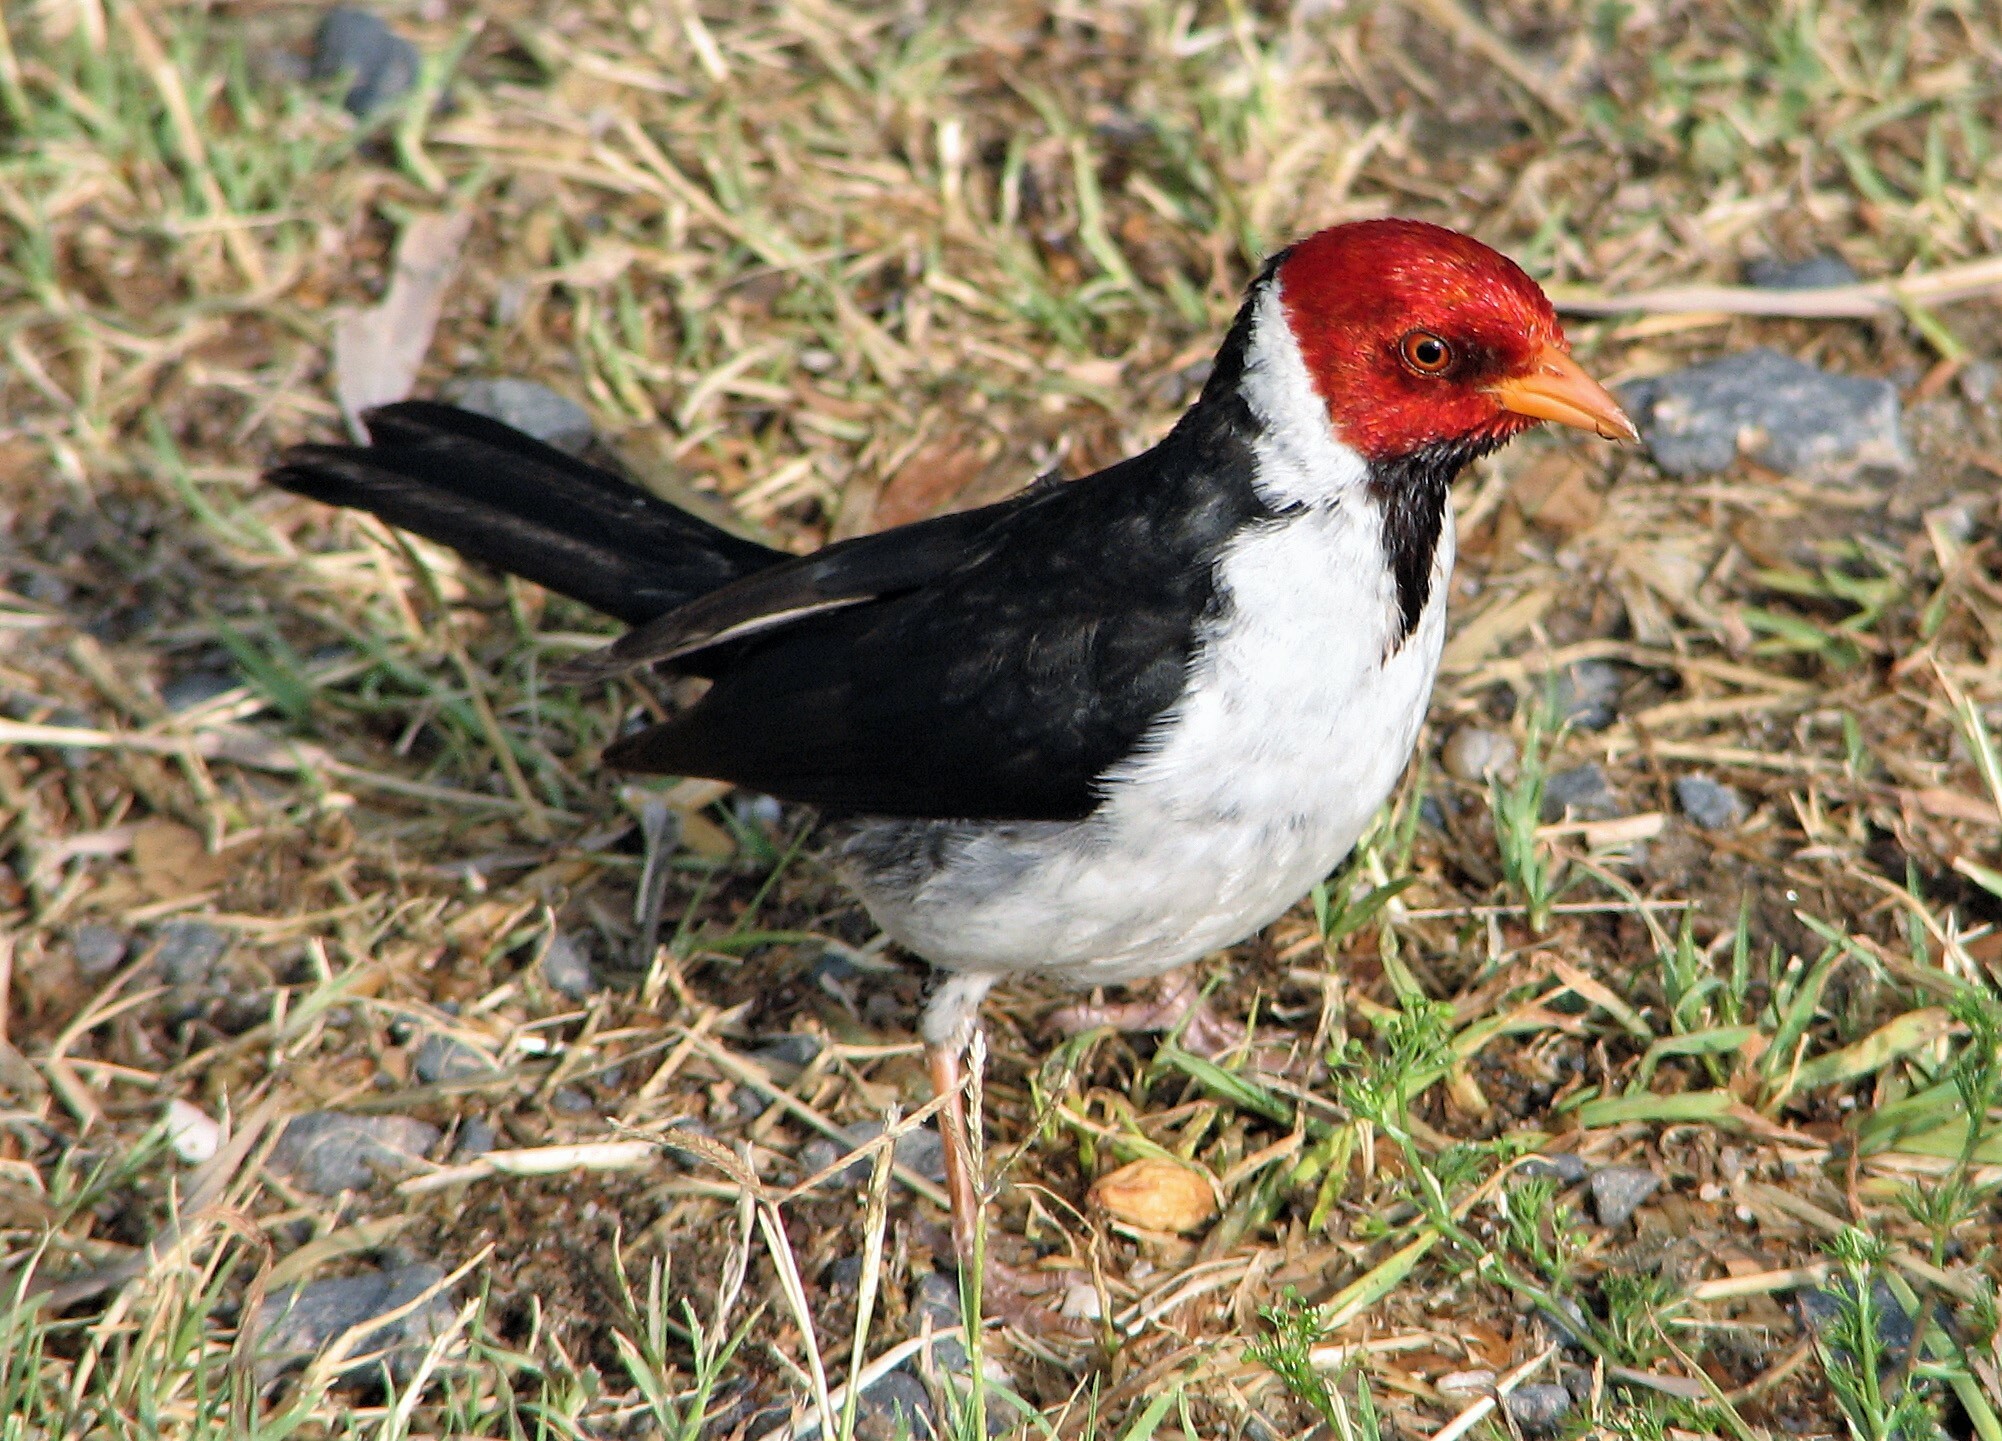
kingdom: Animalia
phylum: Chordata
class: Aves
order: Passeriformes
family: Thraupidae
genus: Paroaria
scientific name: Paroaria capitata
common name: Yellow-billed cardinal
